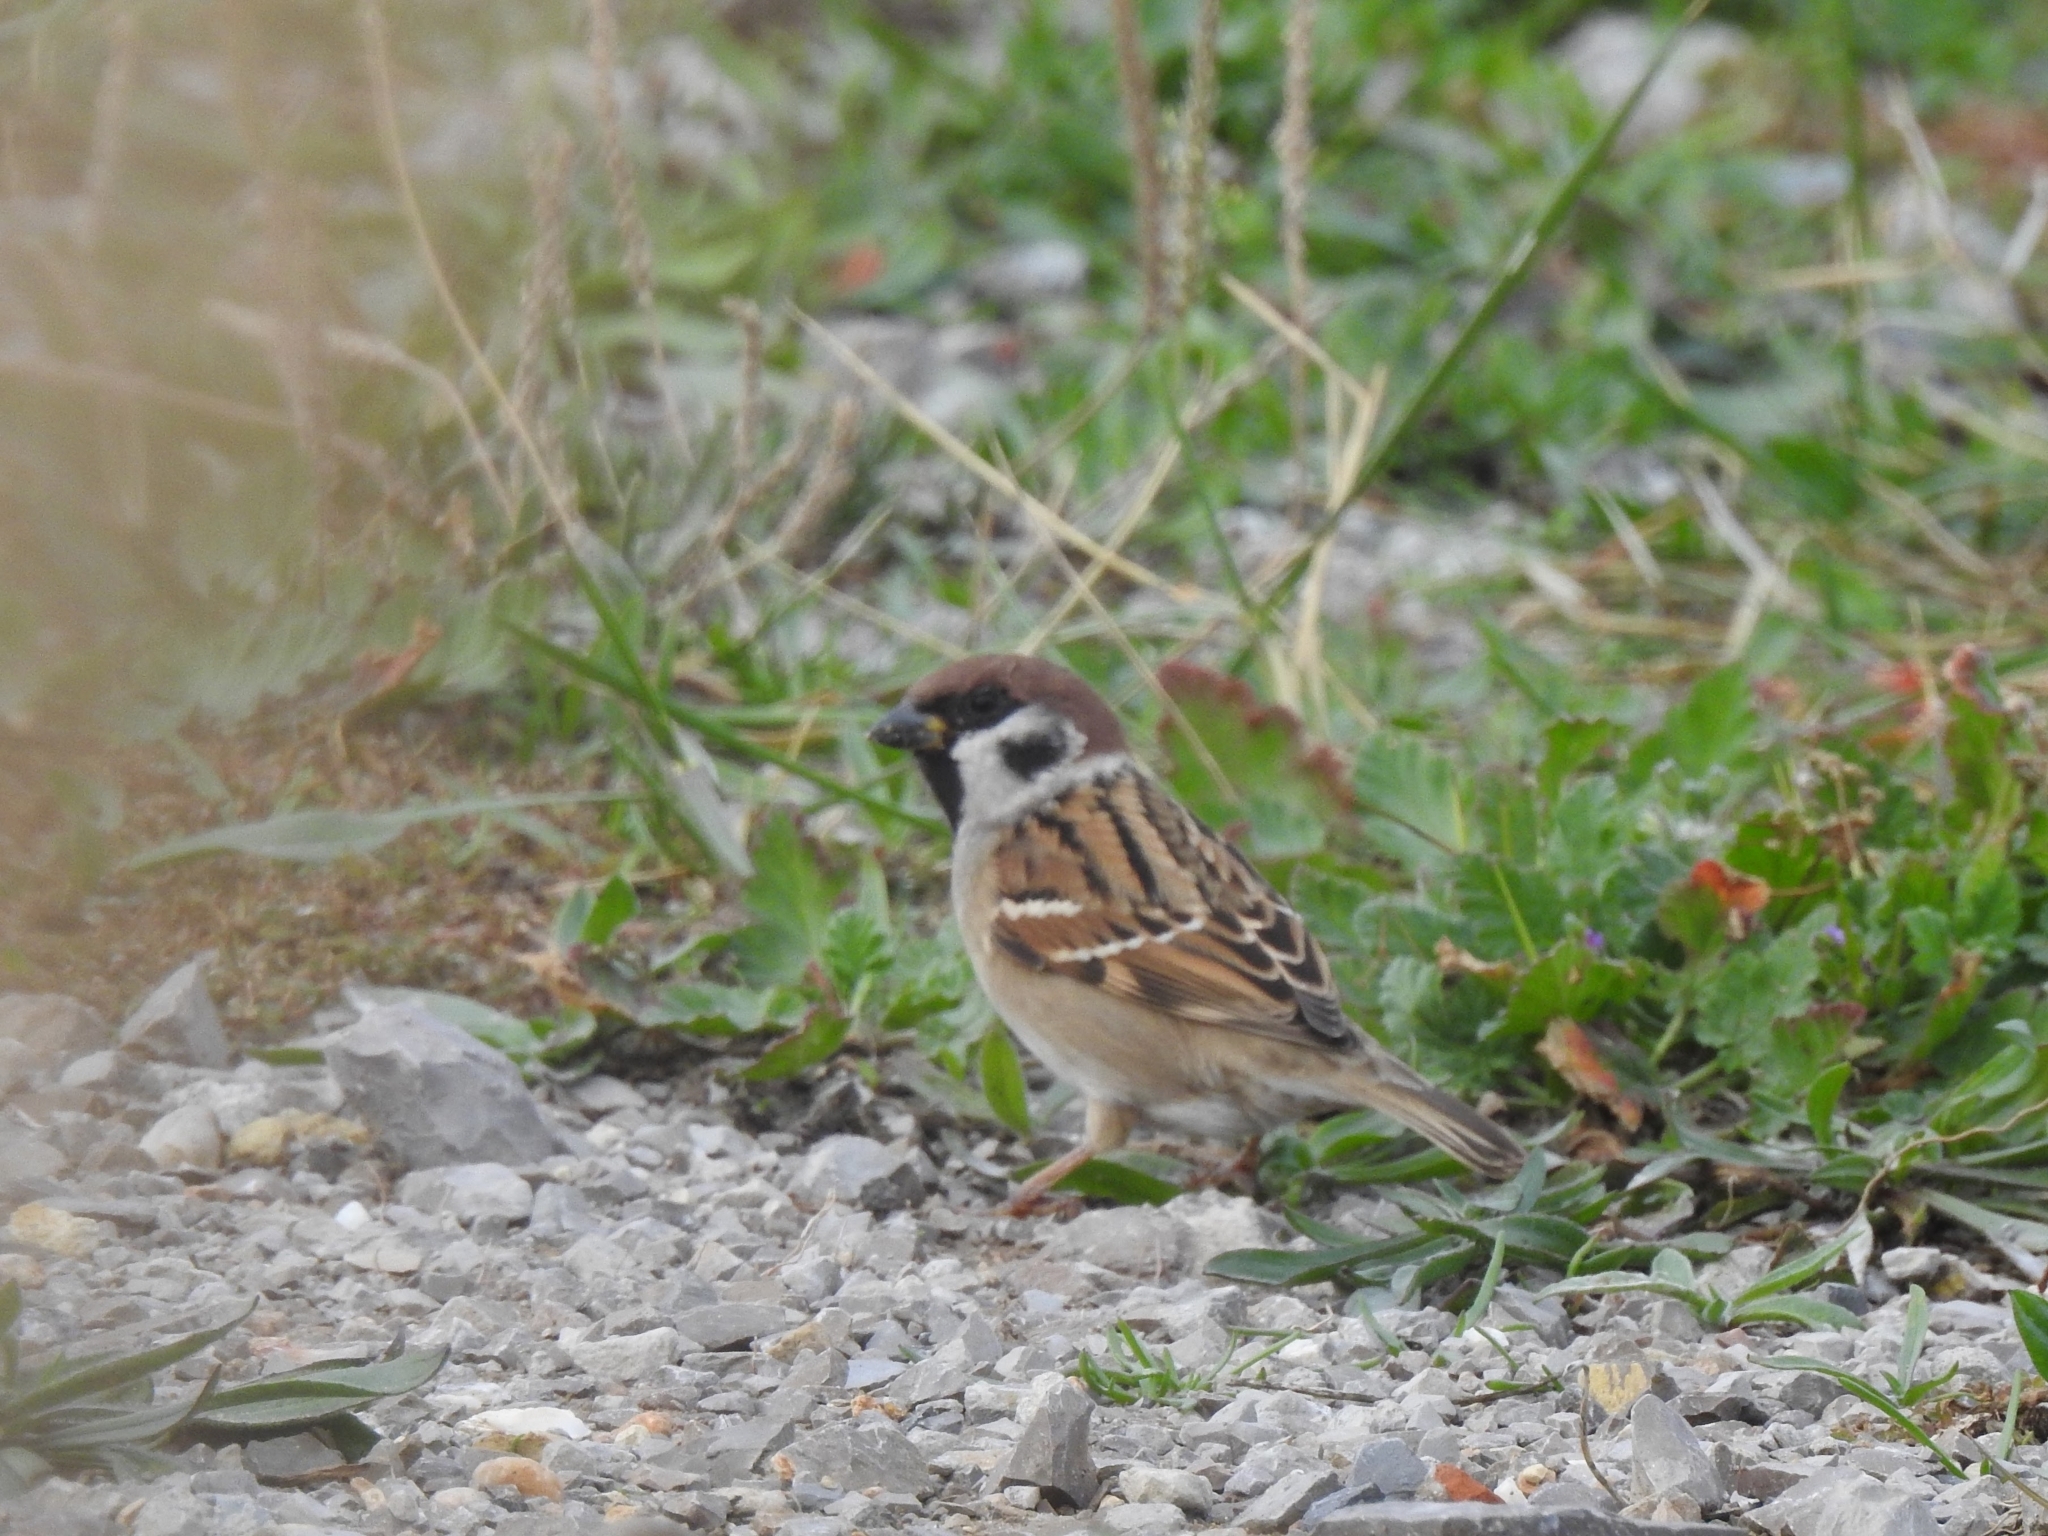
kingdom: Animalia
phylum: Chordata
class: Aves
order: Passeriformes
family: Passeridae
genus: Passer
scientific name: Passer montanus
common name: Eurasian tree sparrow
